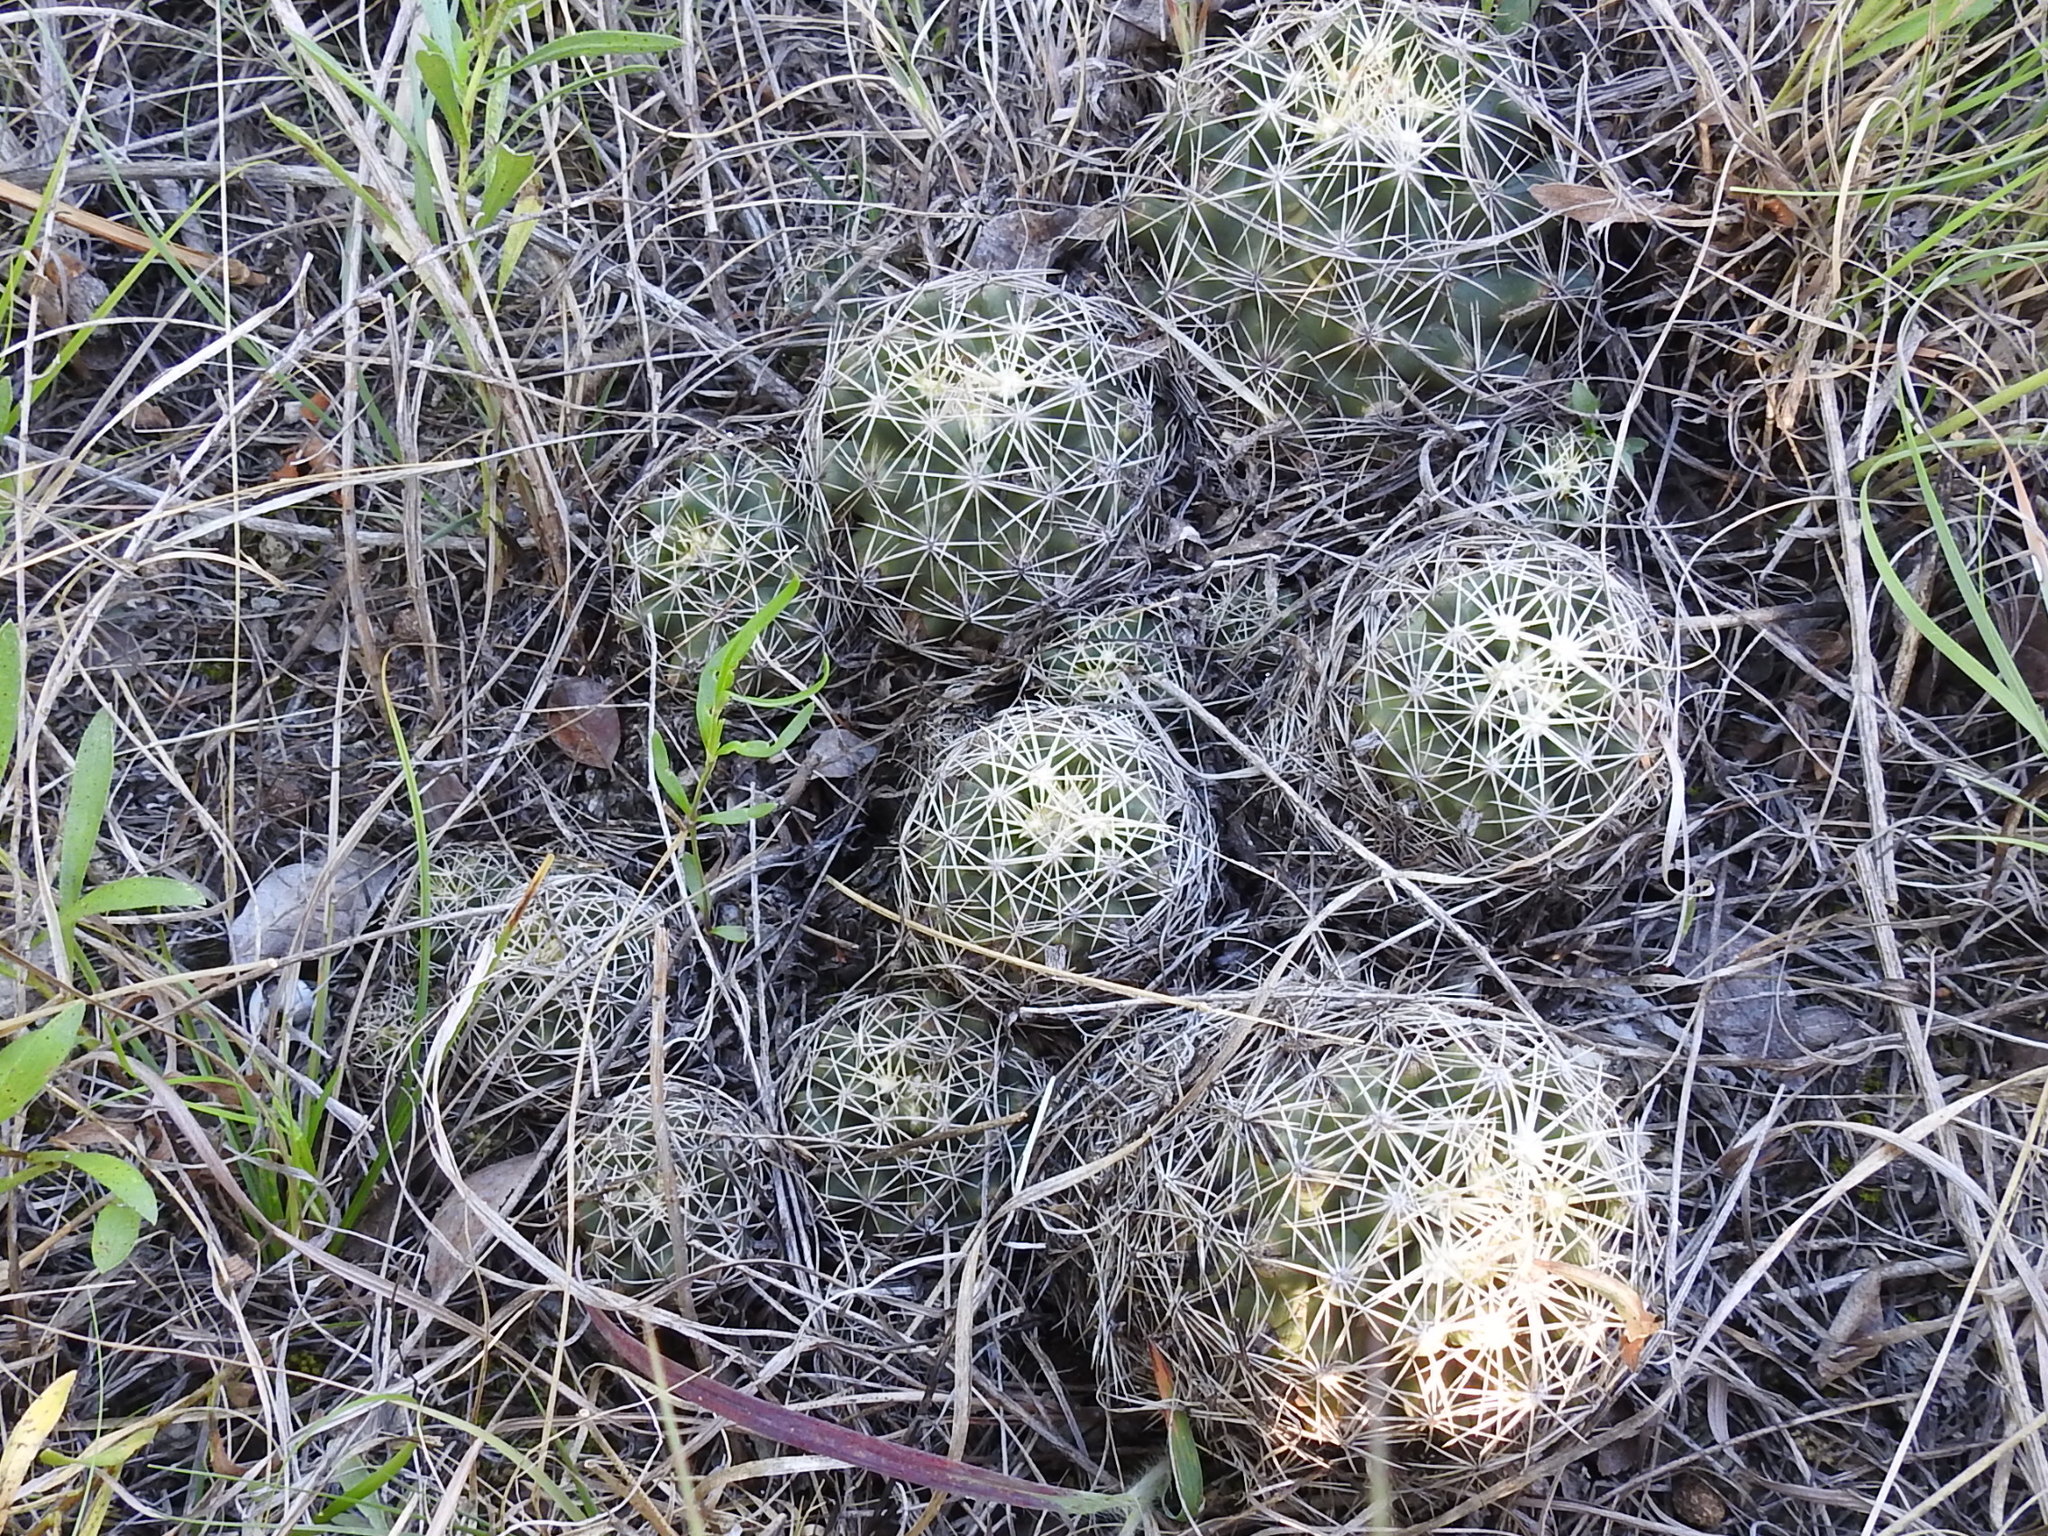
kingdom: Plantae
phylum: Tracheophyta
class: Magnoliopsida
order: Caryophyllales
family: Cactaceae
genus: Coryphantha
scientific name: Coryphantha sulcata
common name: Finger cactus
